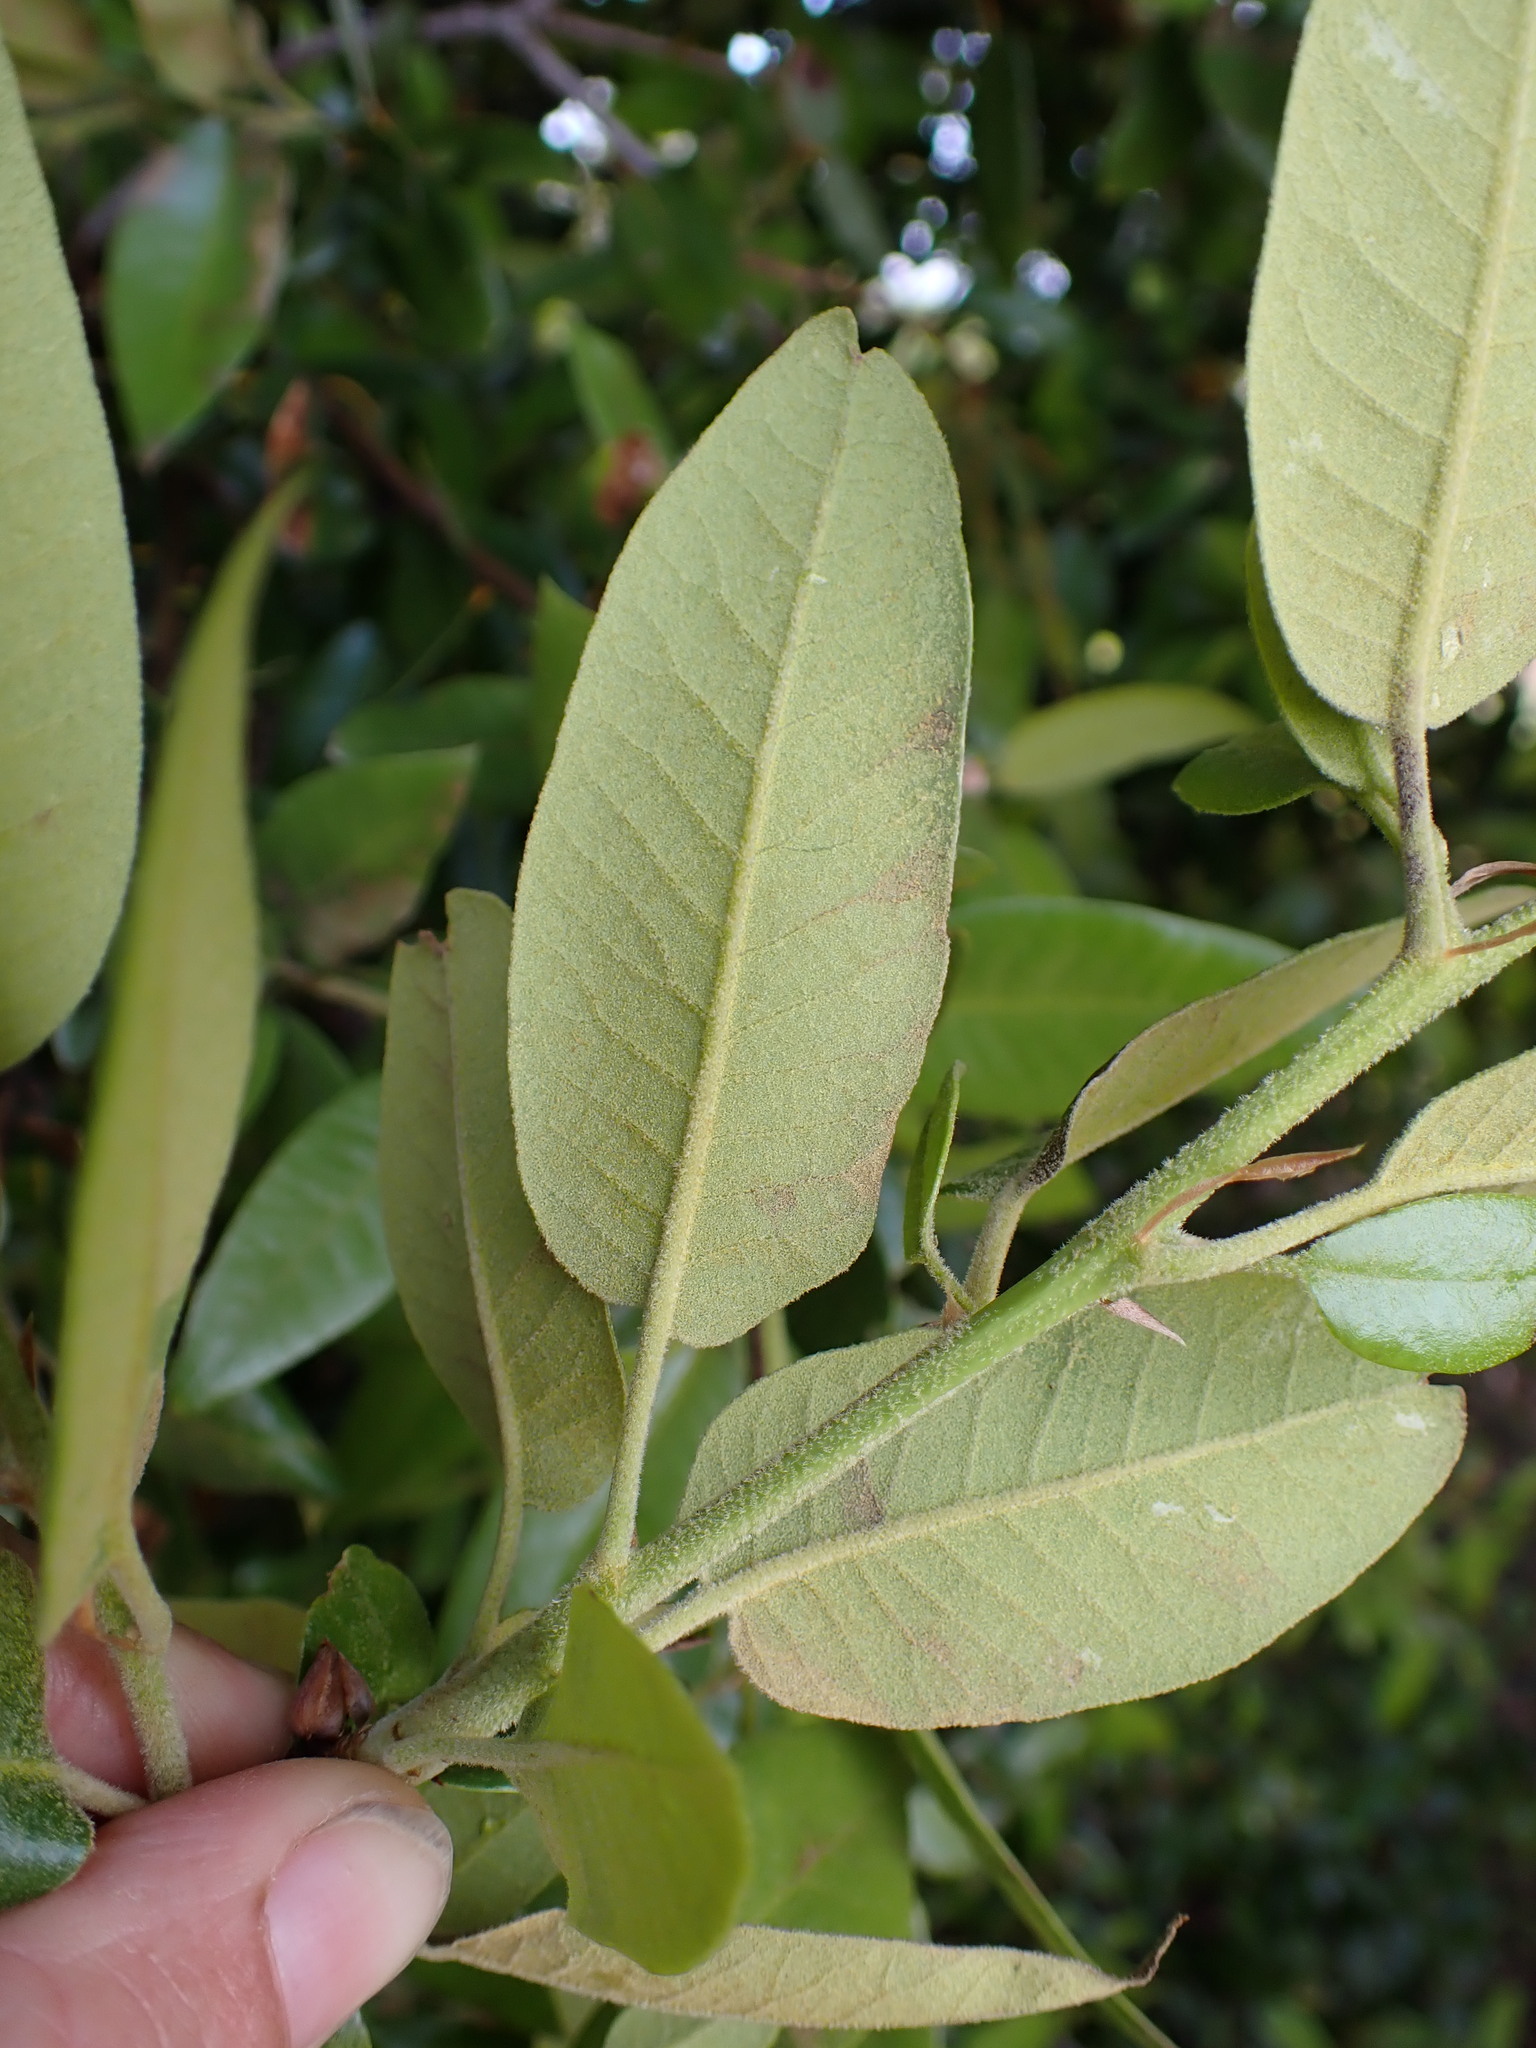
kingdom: Plantae
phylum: Tracheophyta
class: Magnoliopsida
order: Fagales
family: Fagaceae
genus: Quercus
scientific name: Quercus chrysolepis
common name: Canyon live oak
